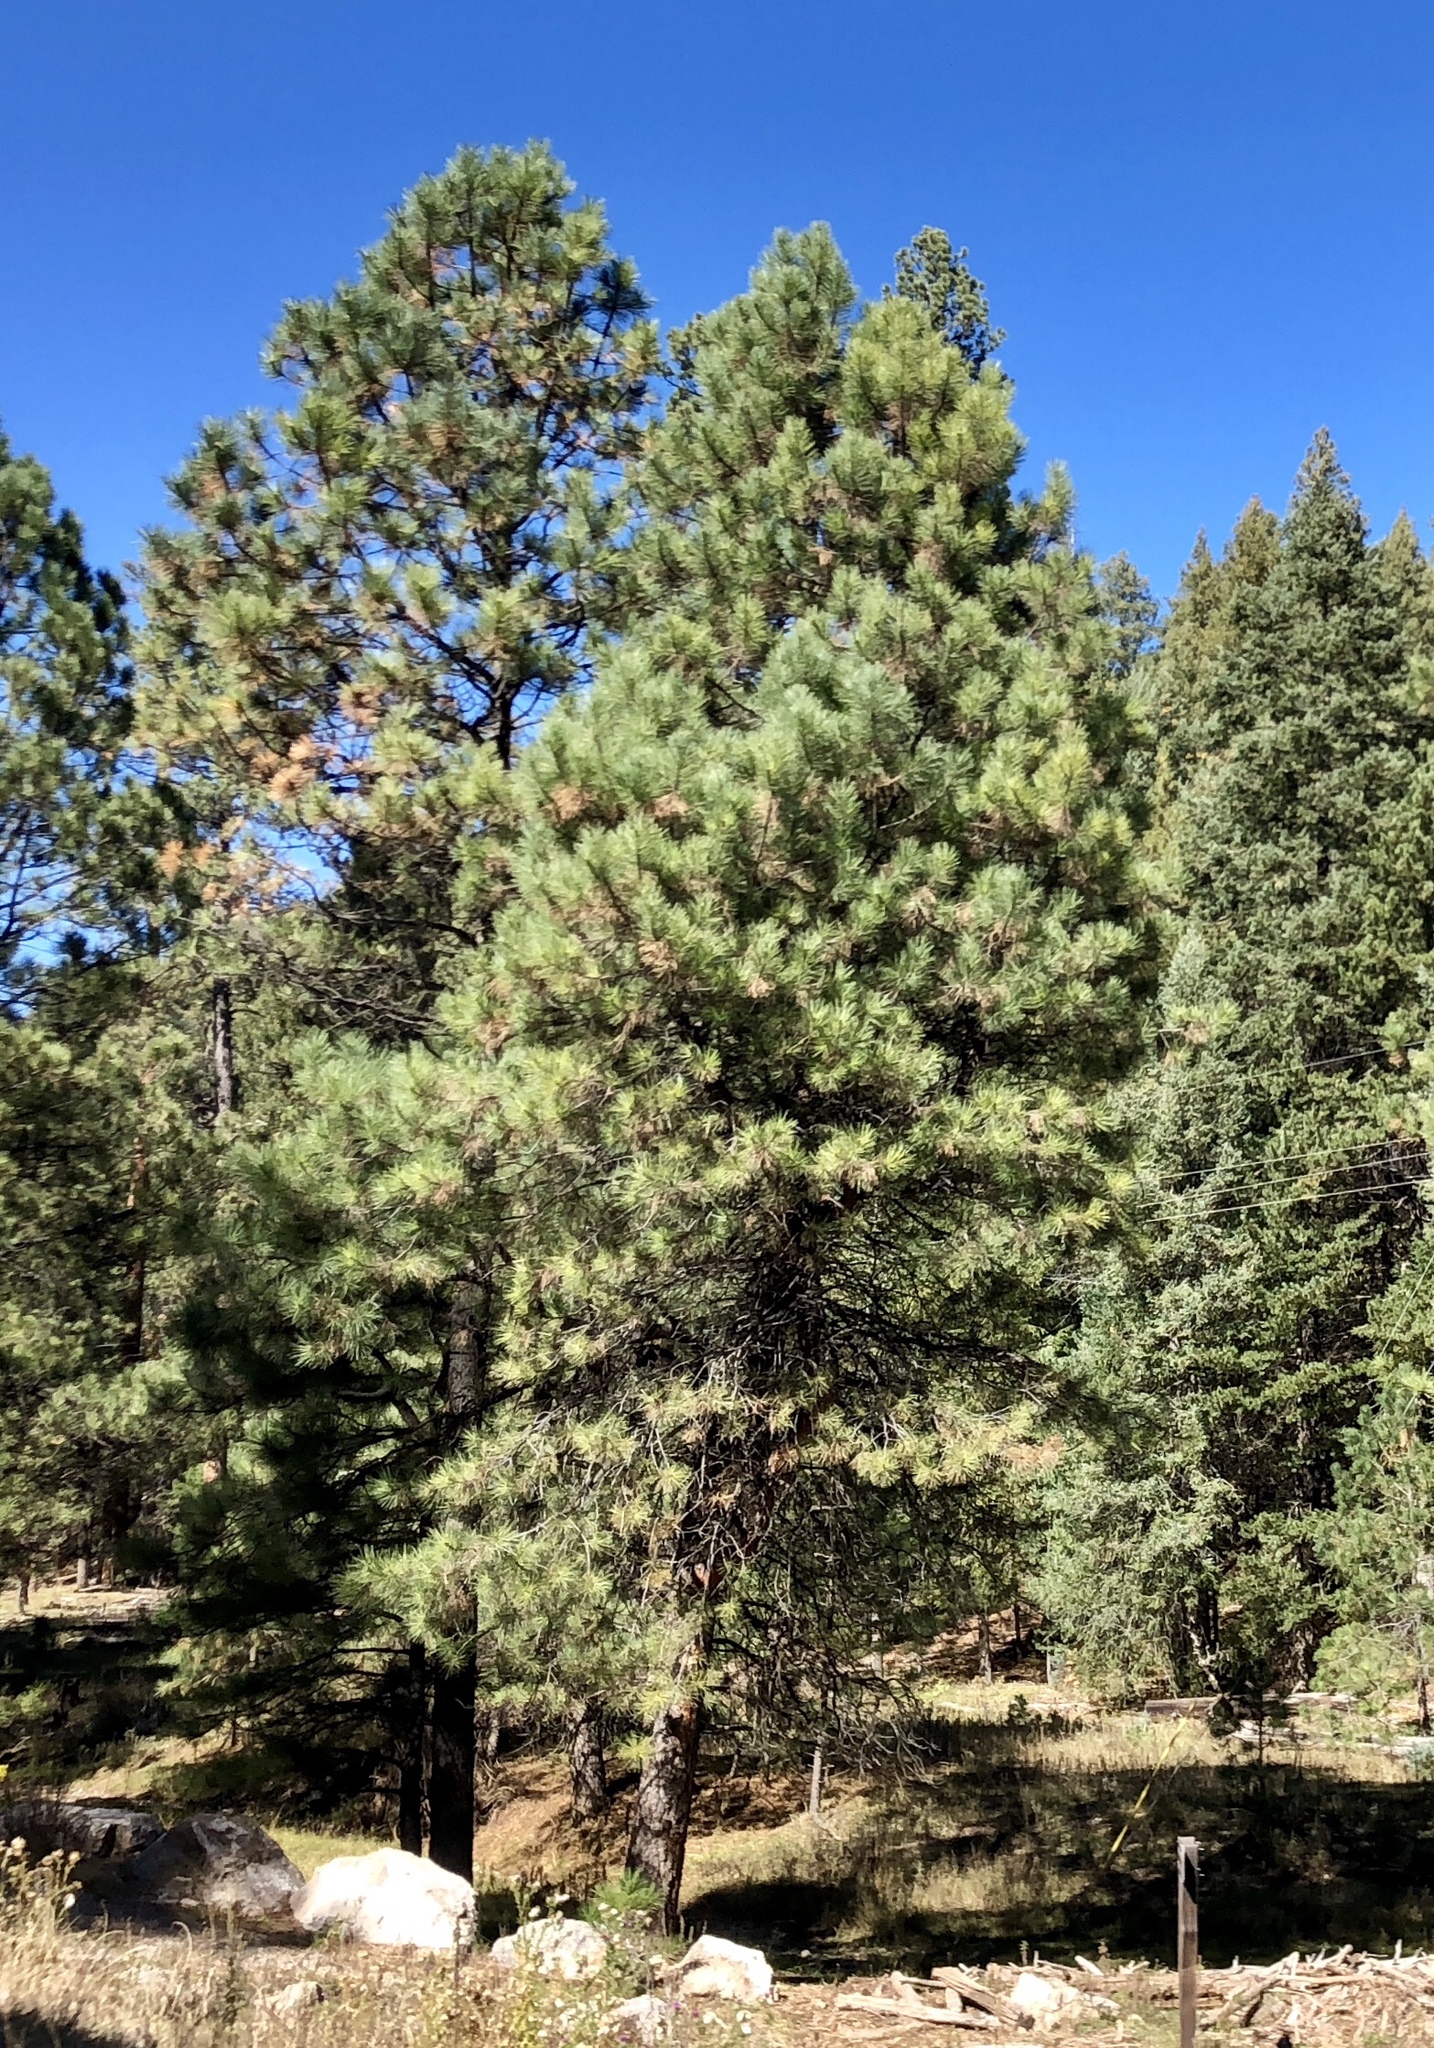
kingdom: Plantae
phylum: Tracheophyta
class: Pinopsida
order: Pinales
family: Pinaceae
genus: Pinus
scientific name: Pinus ponderosa
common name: Western yellow-pine
